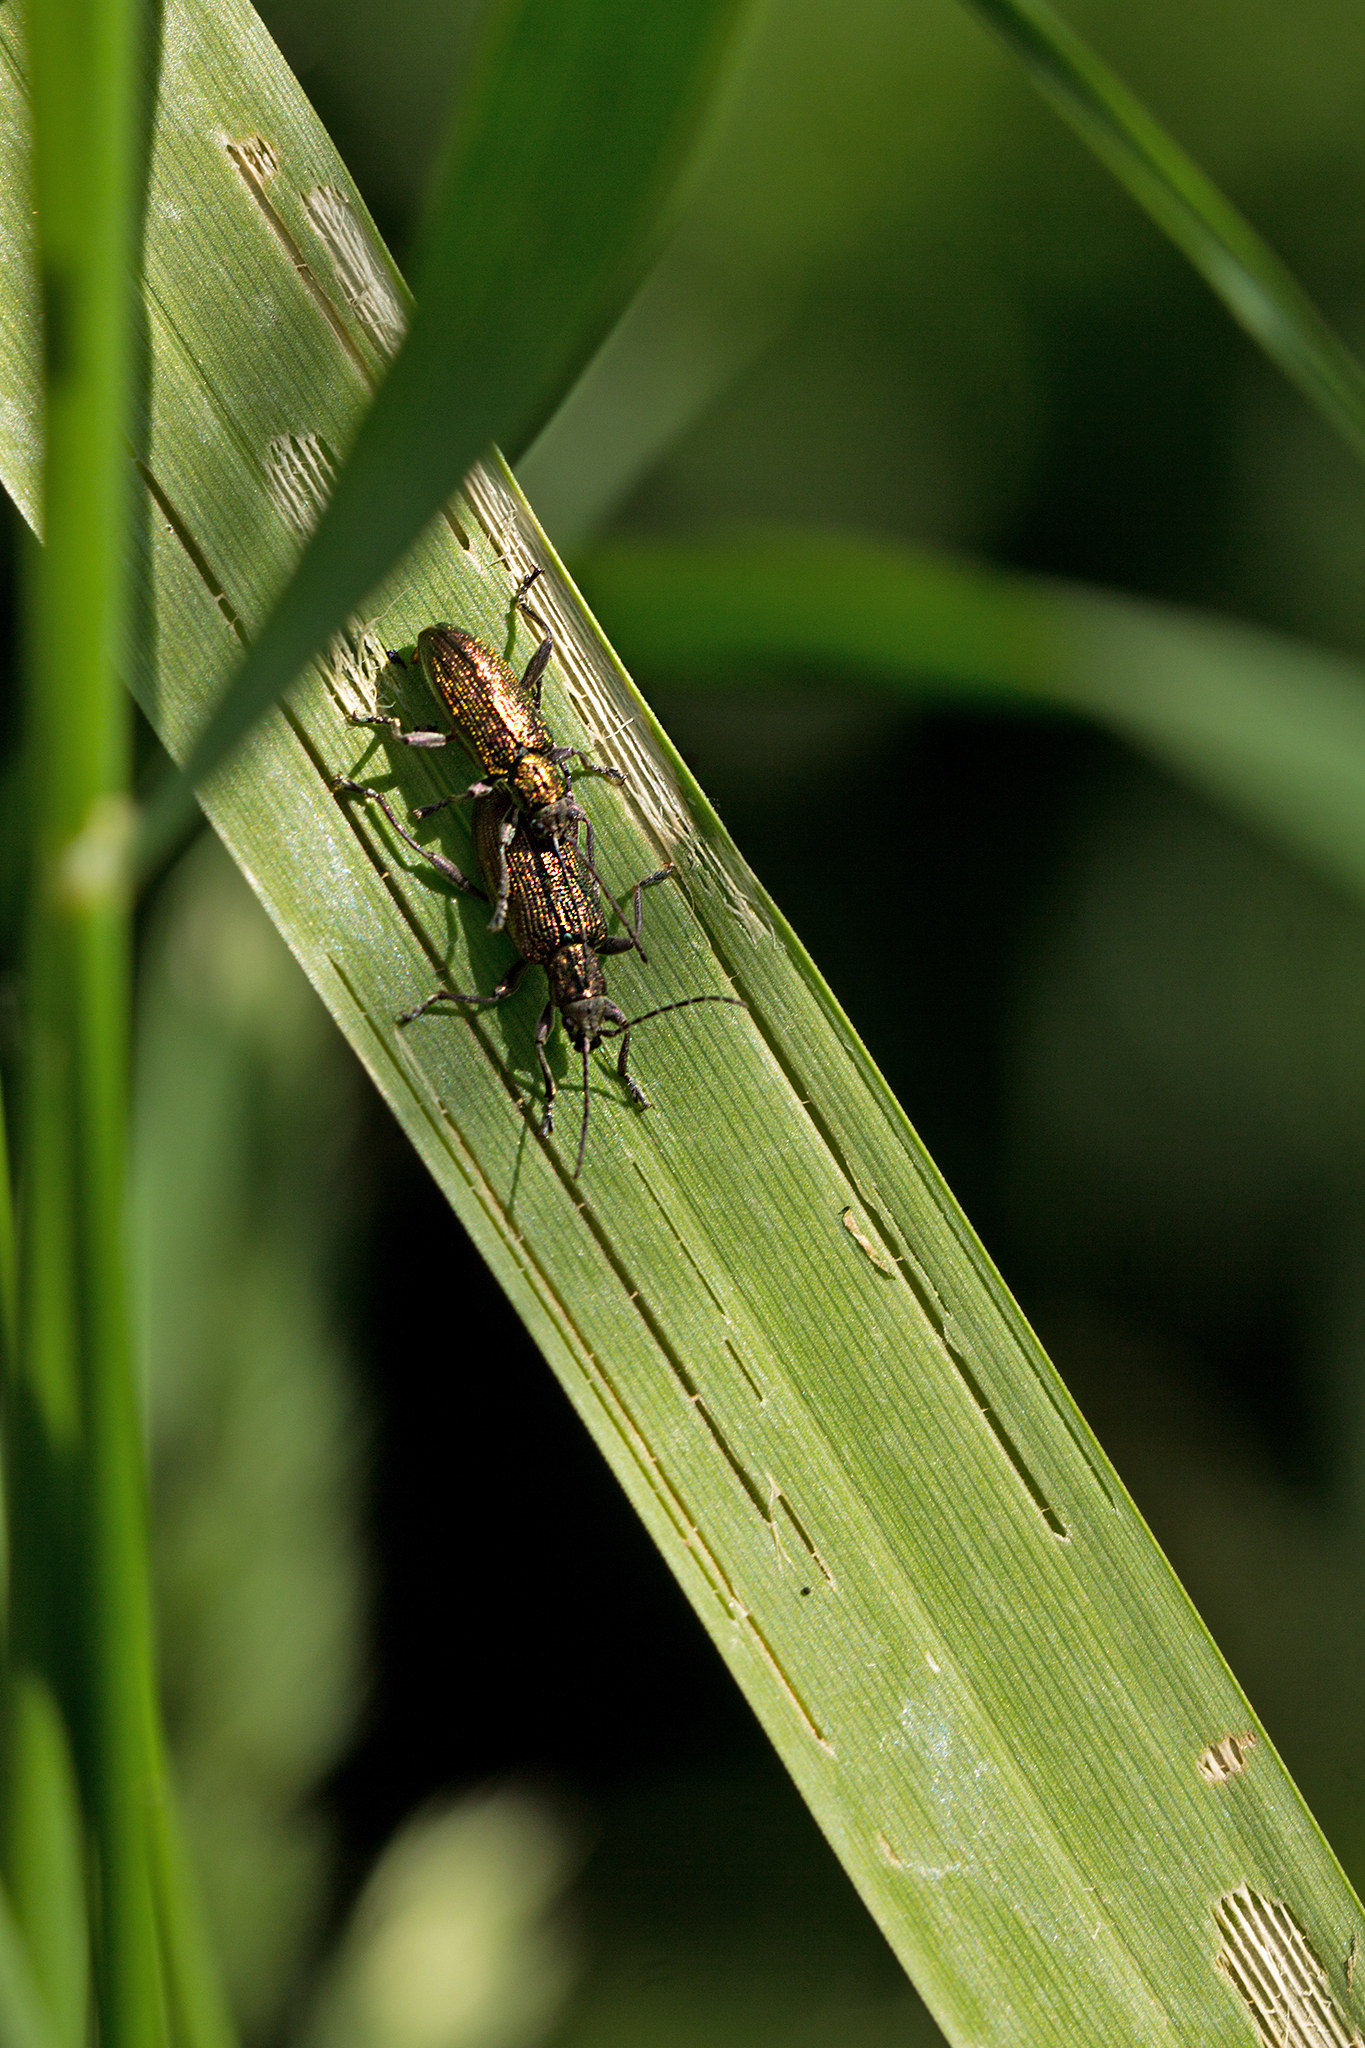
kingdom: Animalia
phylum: Arthropoda
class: Insecta
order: Coleoptera
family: Chrysomelidae
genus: Donacia
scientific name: Donacia marginata
